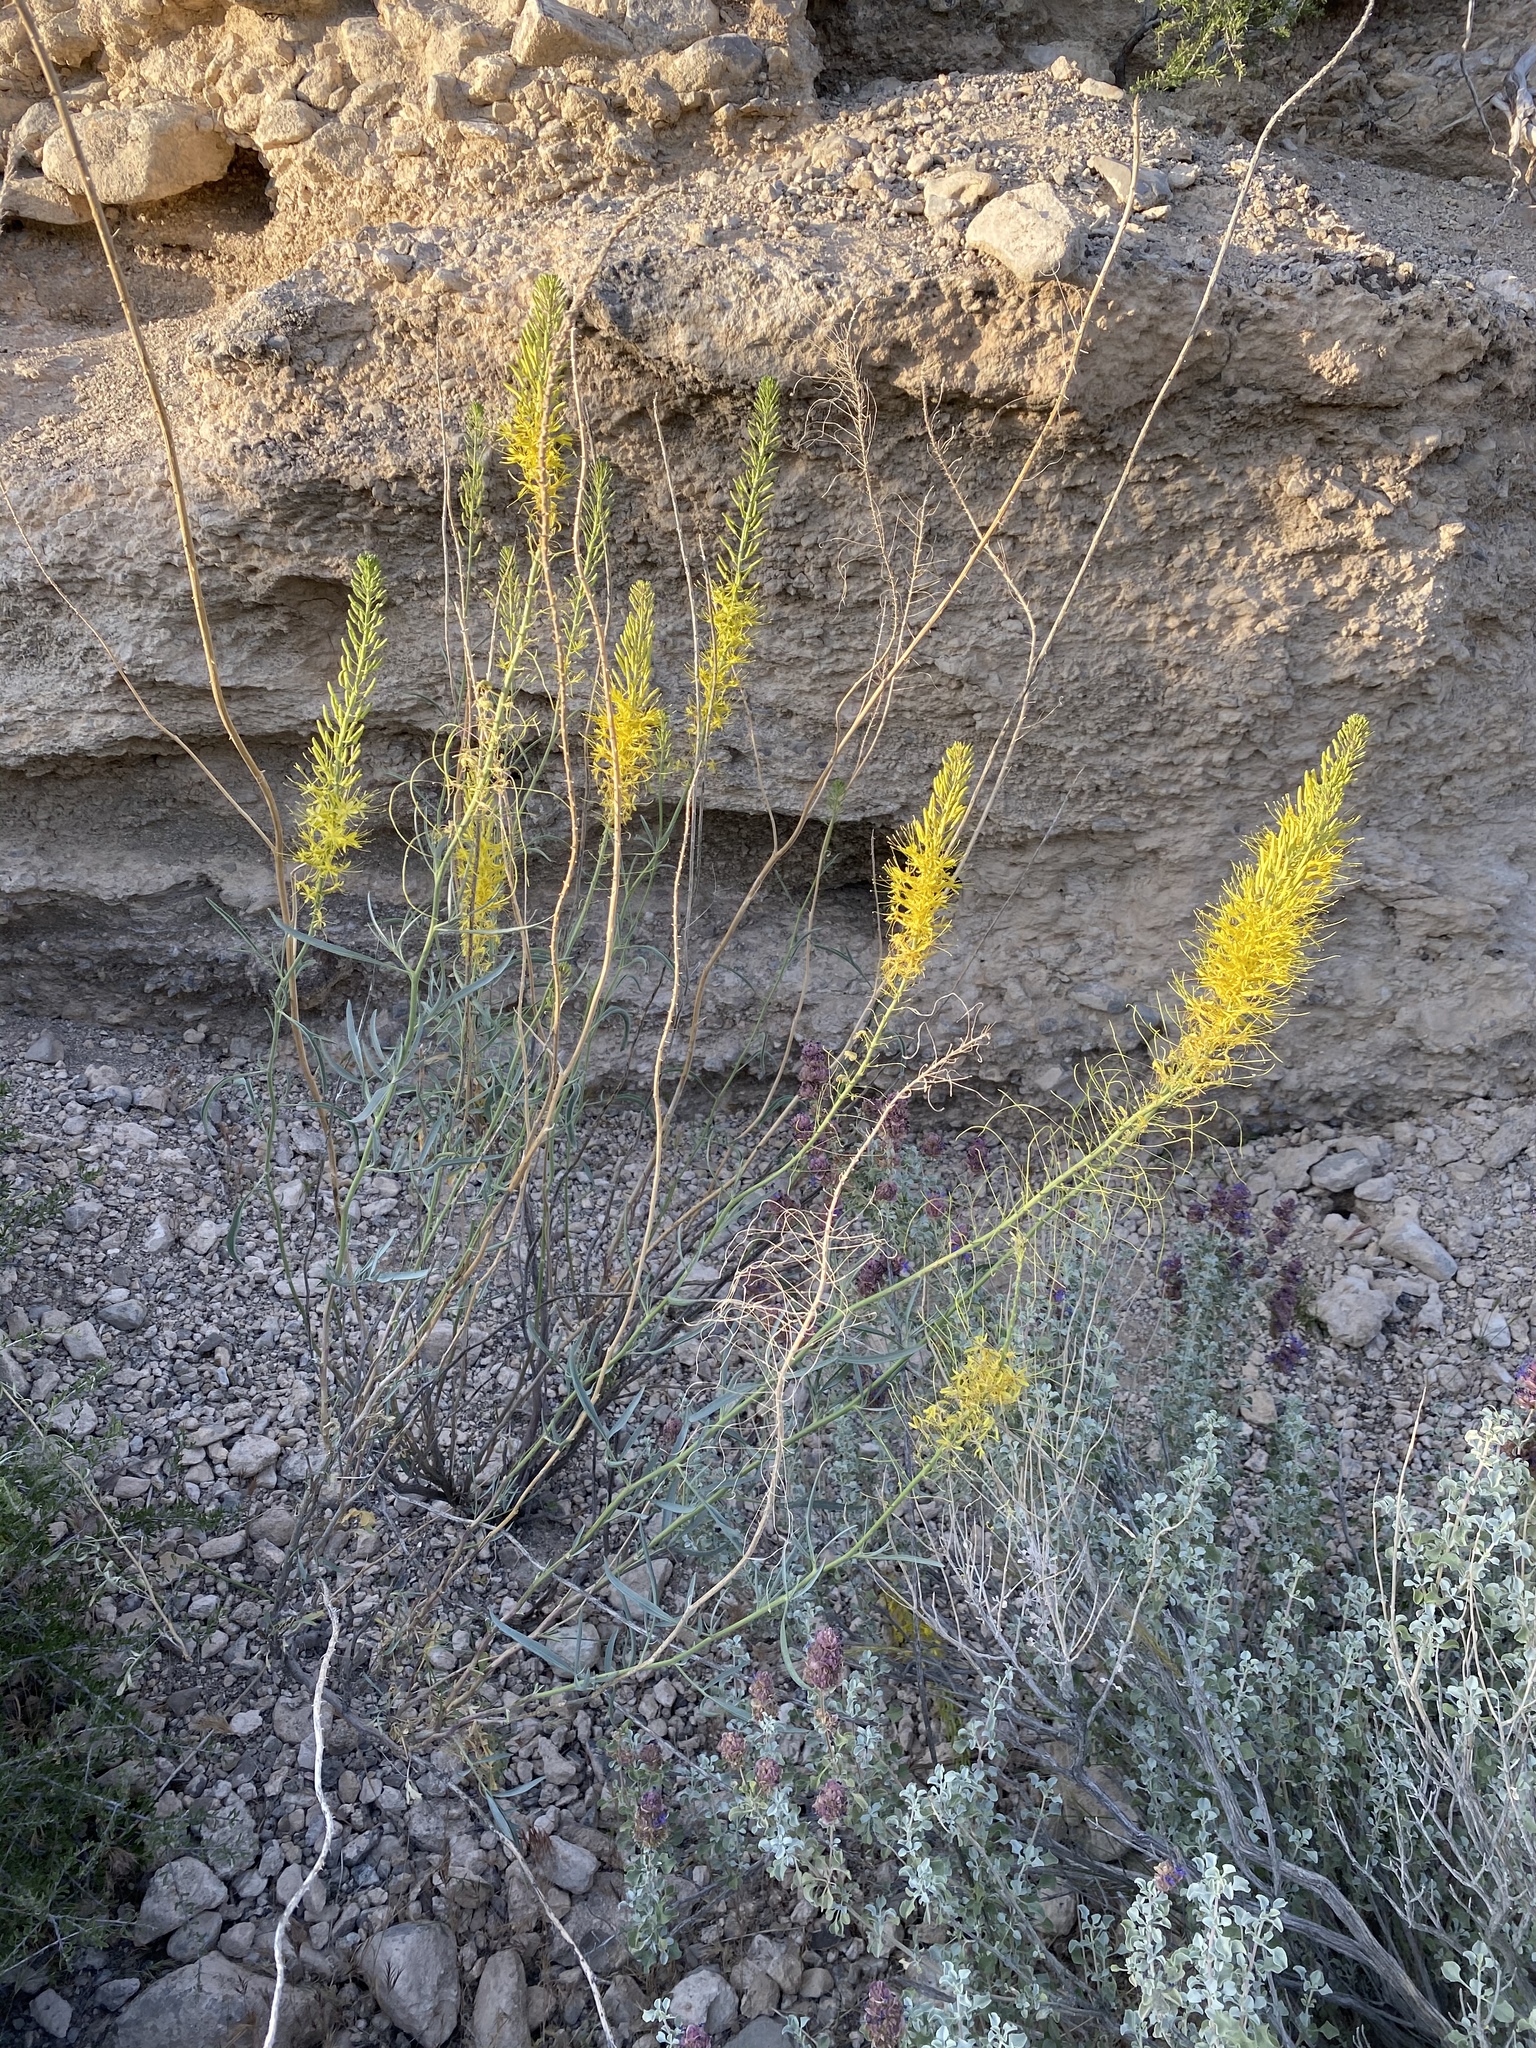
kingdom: Plantae
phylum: Tracheophyta
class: Magnoliopsida
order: Brassicales
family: Brassicaceae
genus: Stanleya
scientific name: Stanleya pinnata
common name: Prince's-plume
